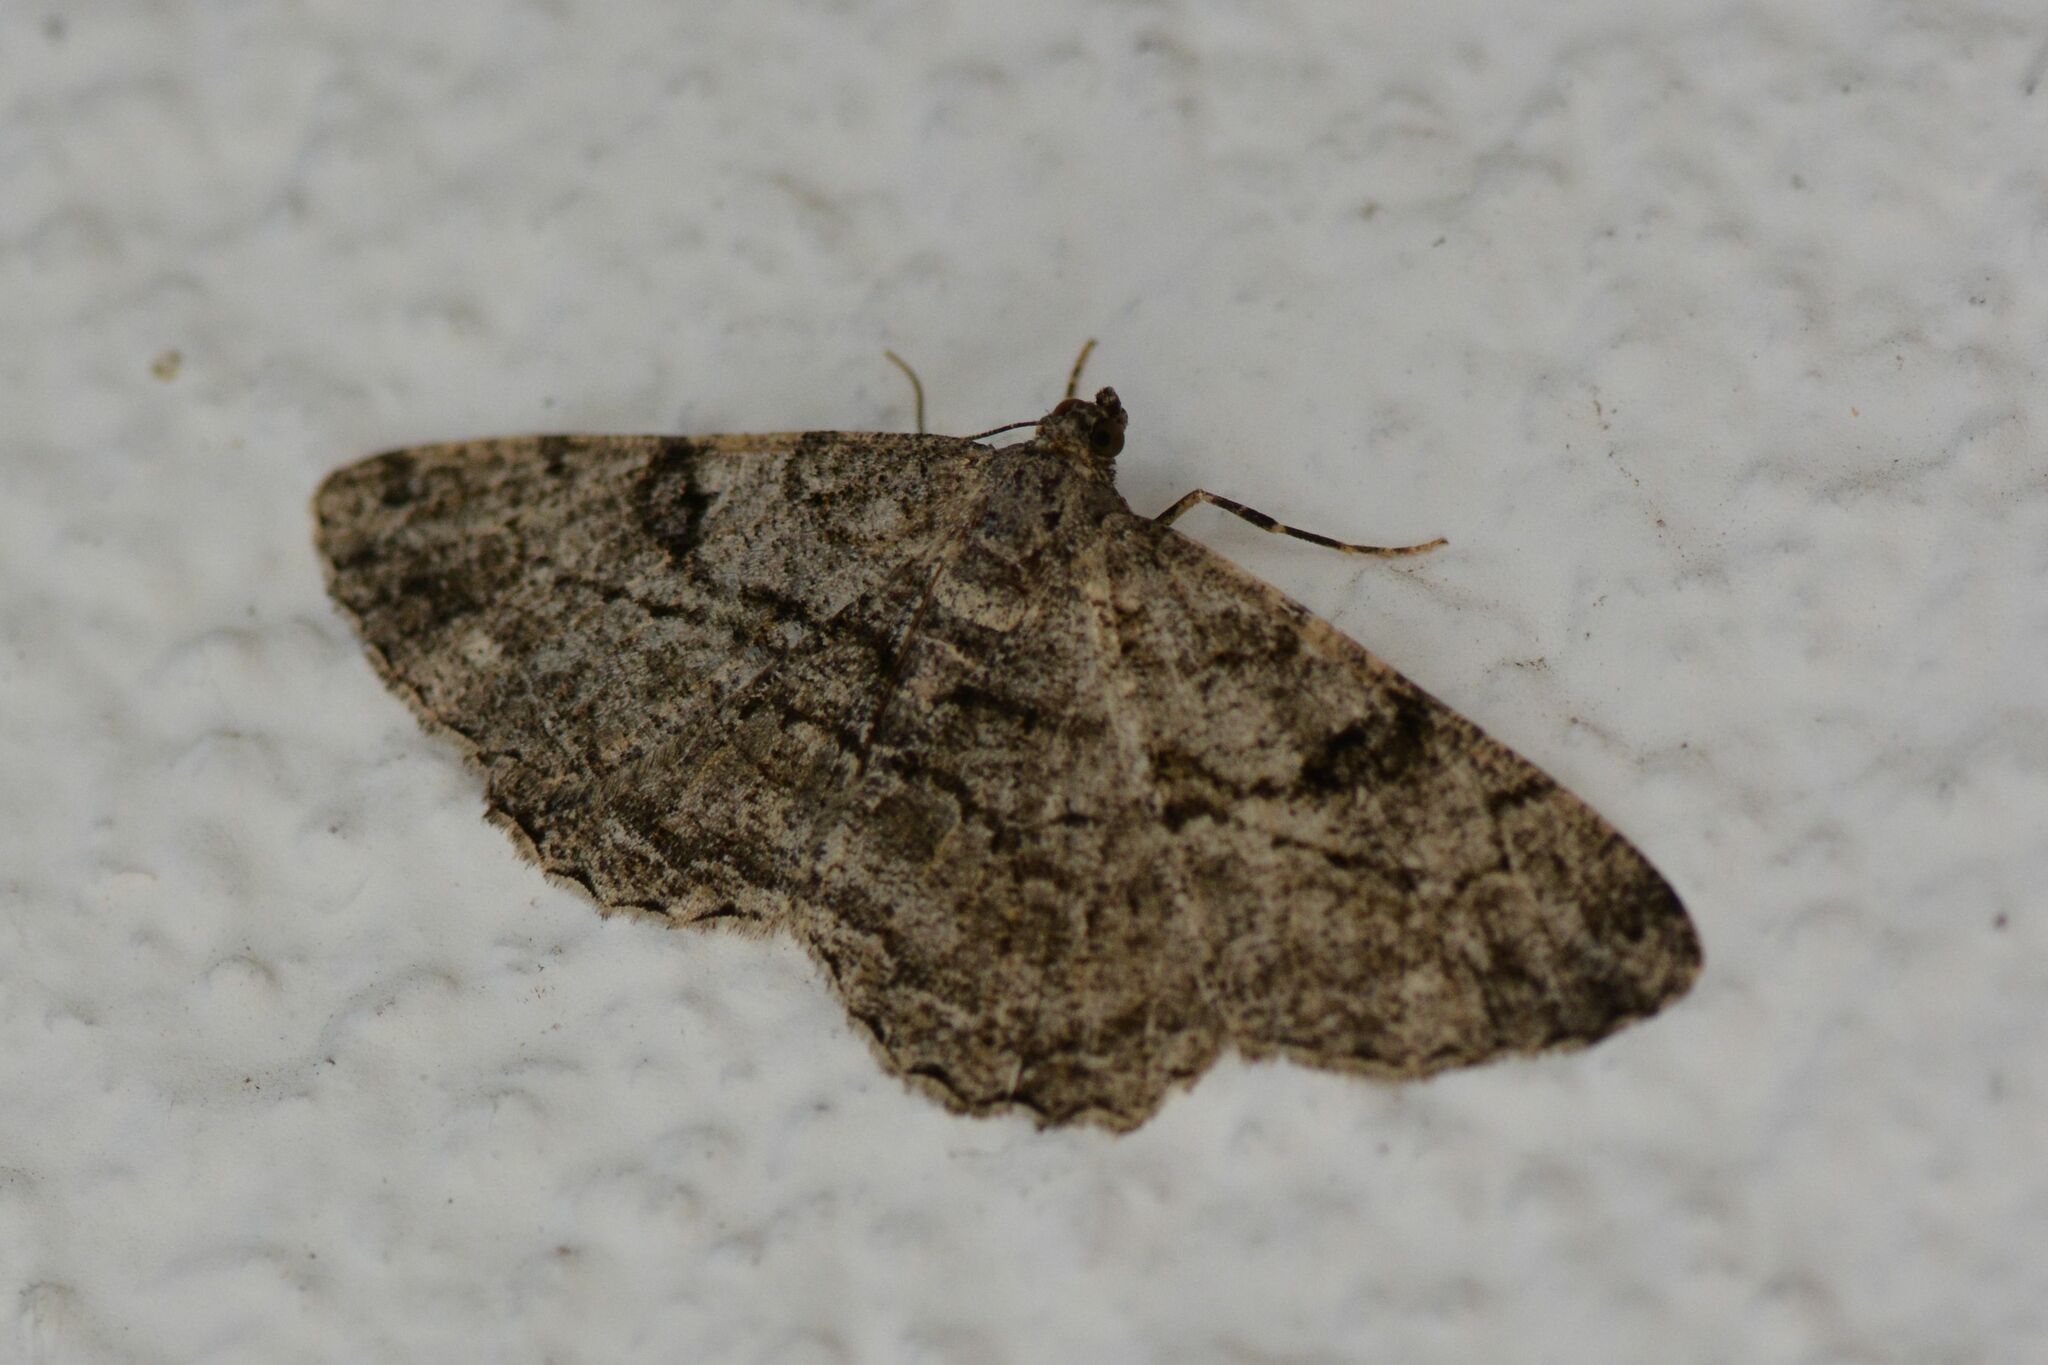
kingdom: Animalia
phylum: Arthropoda
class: Insecta
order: Lepidoptera
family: Geometridae
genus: Peribatodes
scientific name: Peribatodes rhomboidaria
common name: Willow beauty
